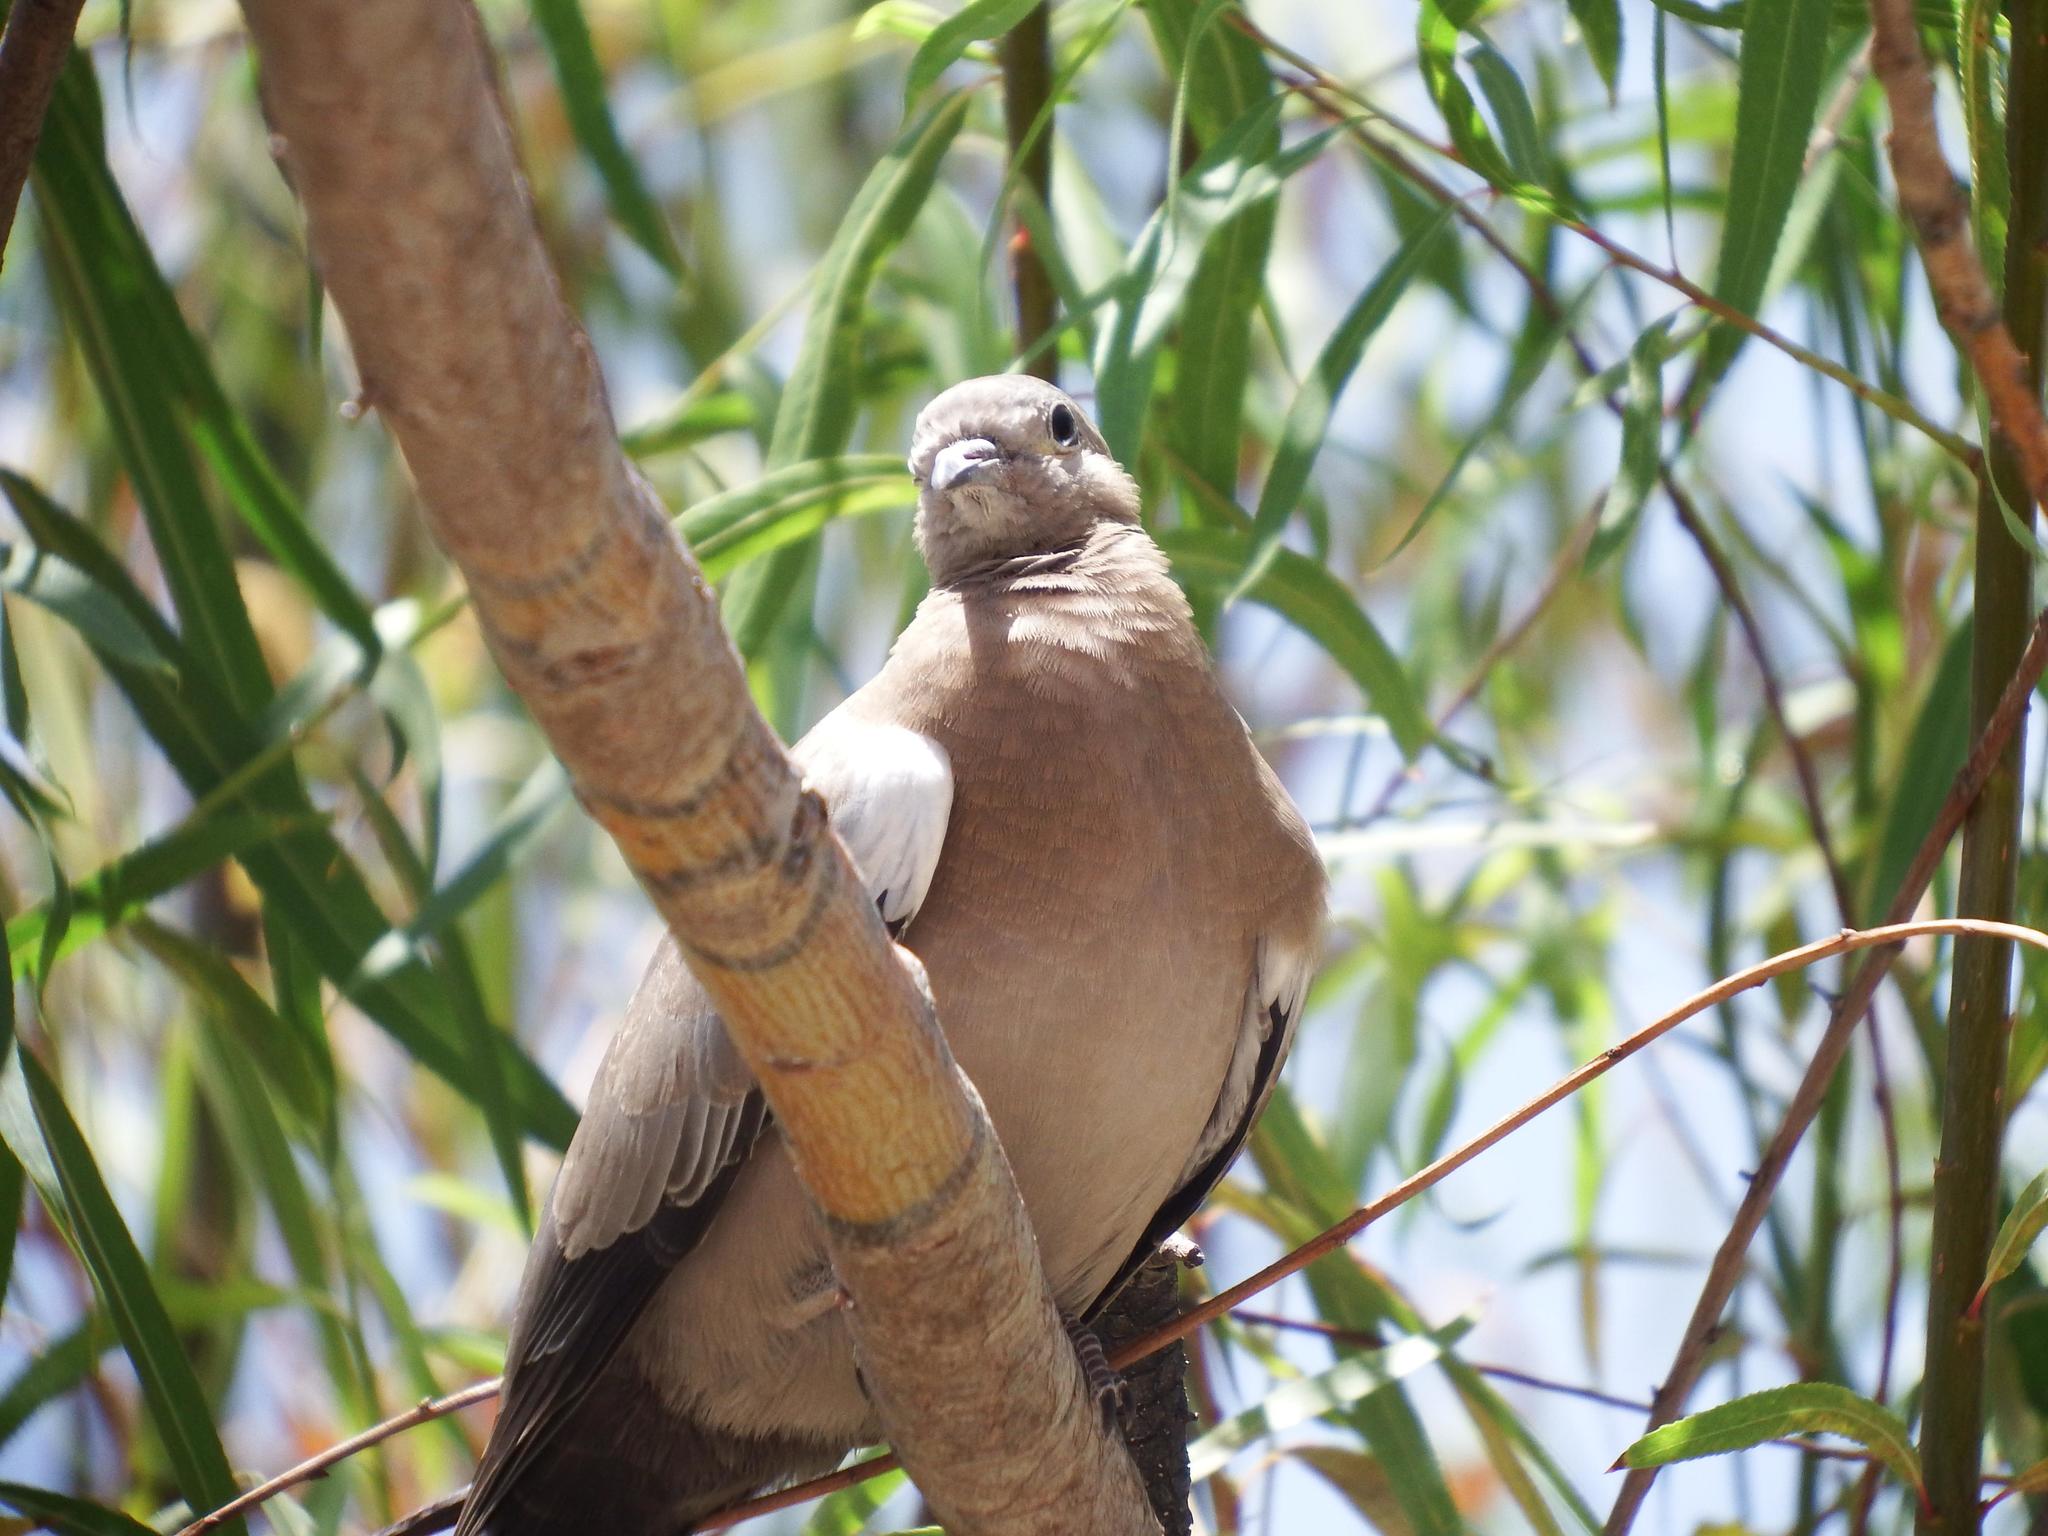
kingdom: Animalia
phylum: Chordata
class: Aves
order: Columbiformes
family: Columbidae
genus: Metriopelia
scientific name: Metriopelia melanoptera
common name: Black-winged ground dove
